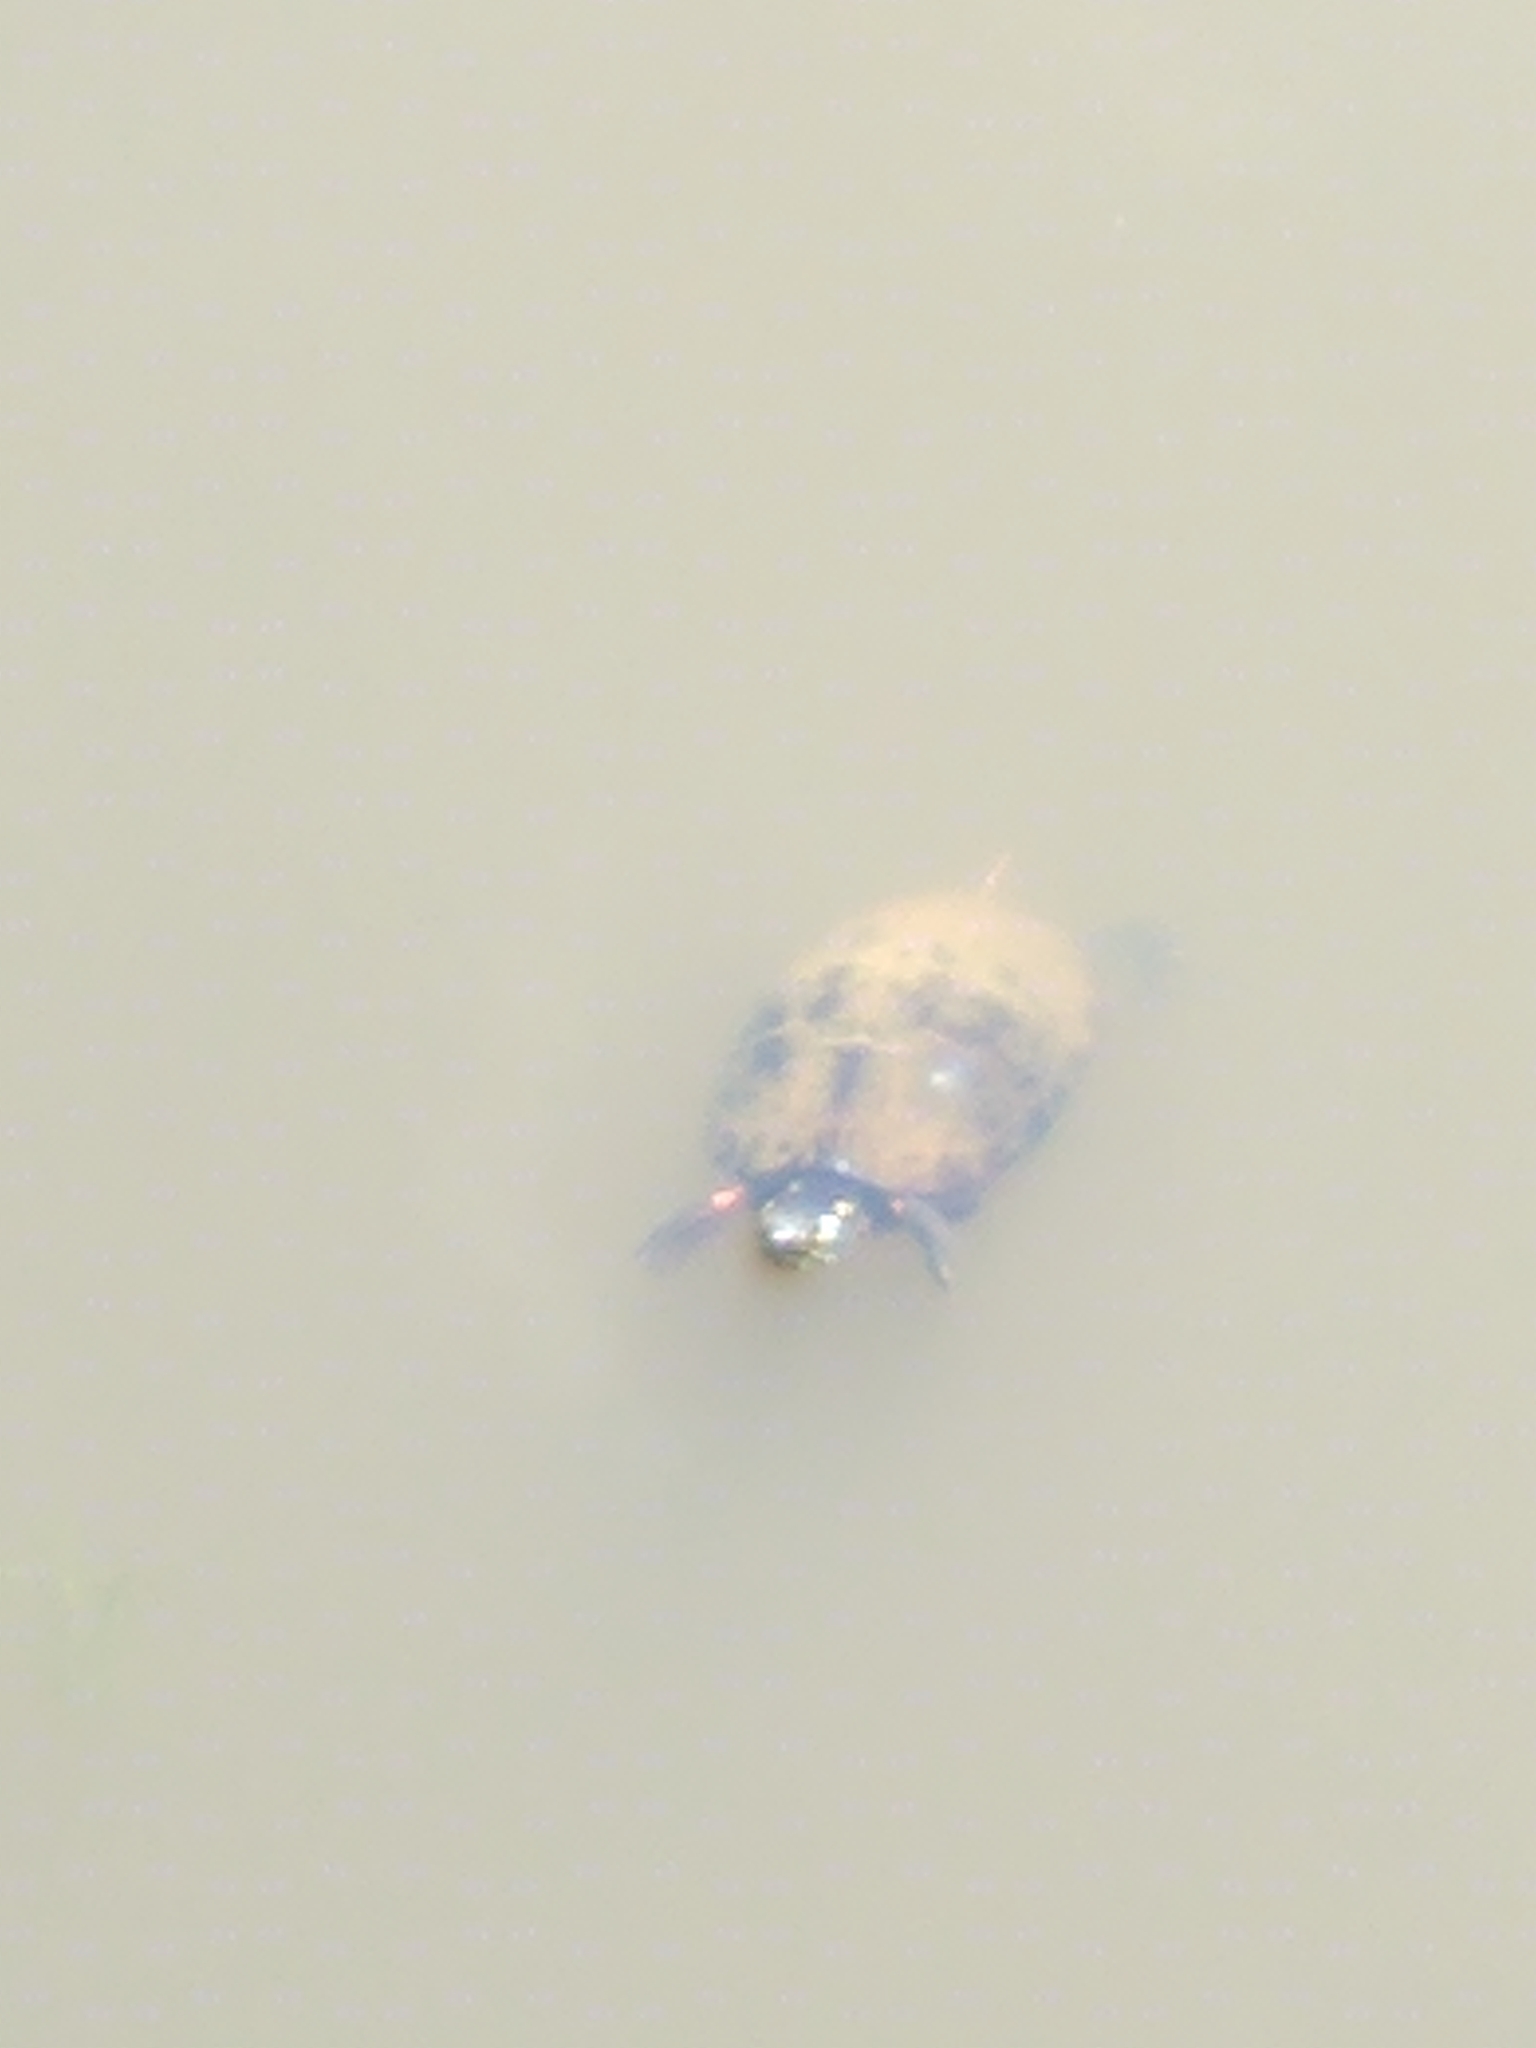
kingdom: Animalia
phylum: Chordata
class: Testudines
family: Emydidae
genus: Chrysemys
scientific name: Chrysemys picta
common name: Painted turtle
